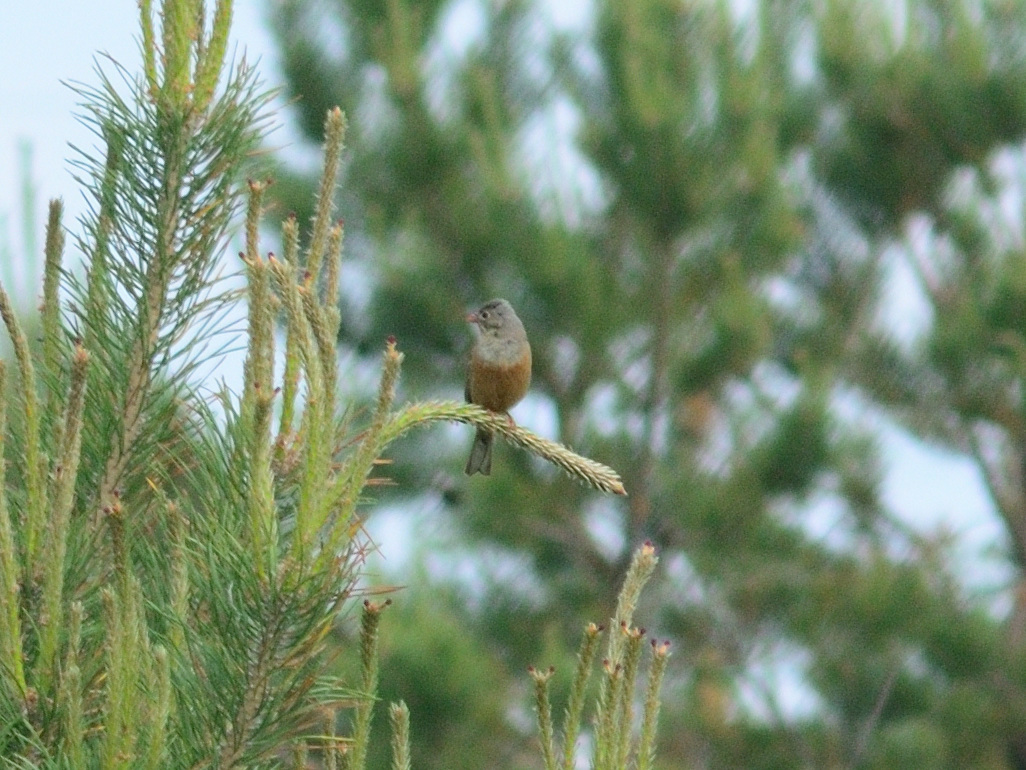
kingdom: Animalia
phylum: Chordata
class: Aves
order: Passeriformes
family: Emberizidae
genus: Emberiza
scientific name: Emberiza hortulana
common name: Ortolan bunting
